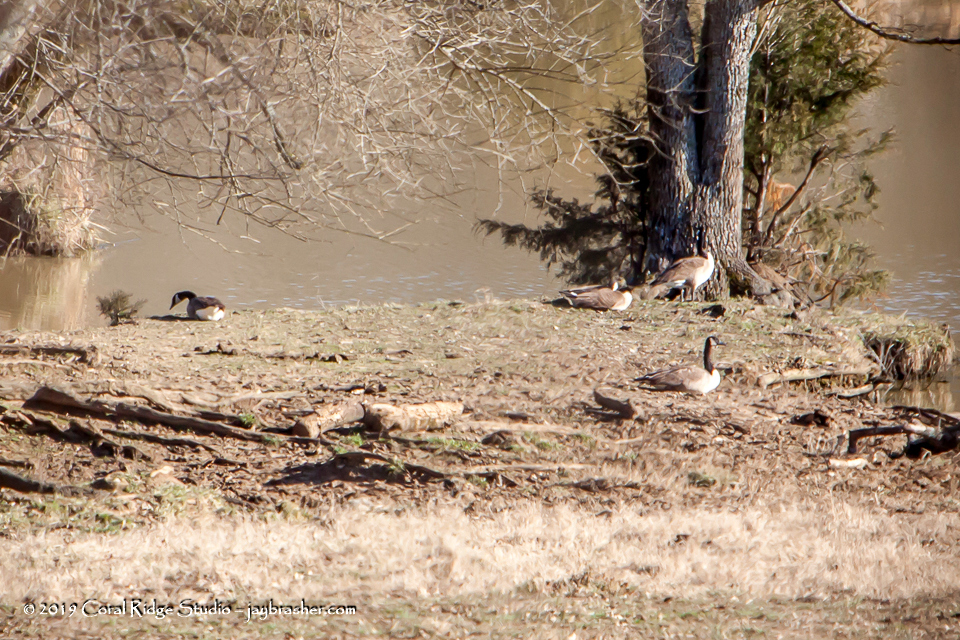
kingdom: Animalia
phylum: Chordata
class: Aves
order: Anseriformes
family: Anatidae
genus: Branta
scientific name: Branta canadensis
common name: Canada goose
